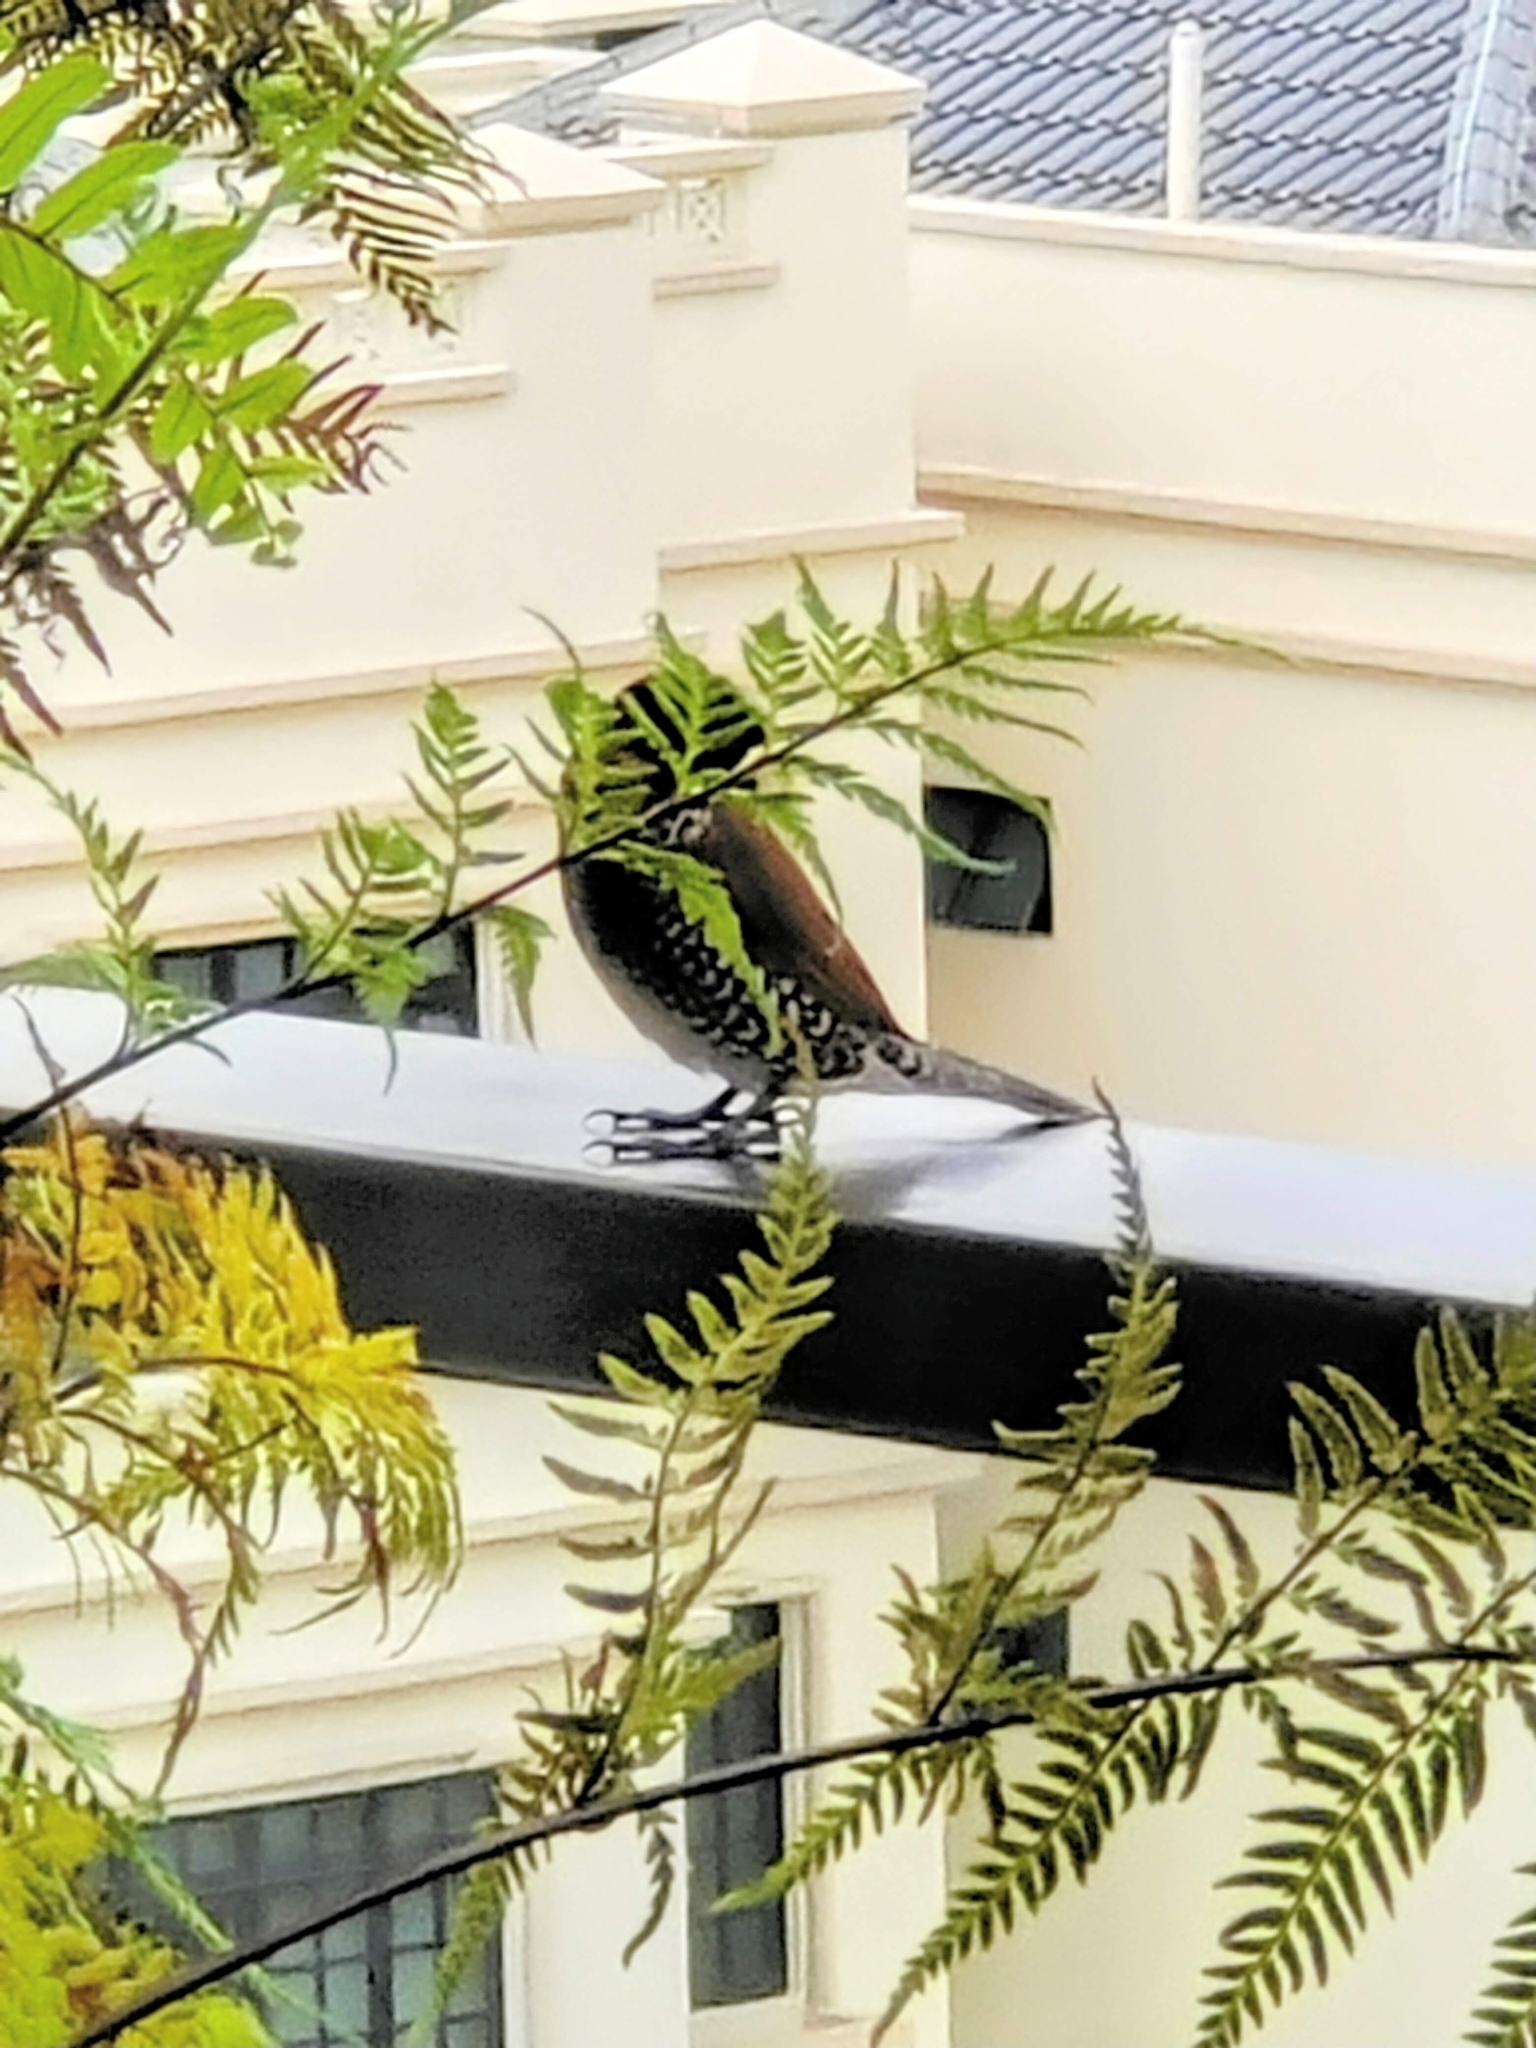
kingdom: Animalia
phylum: Chordata
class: Aves
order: Passeriformes
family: Estrildidae
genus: Lonchura
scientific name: Lonchura punctulata
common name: Scaly-breasted munia
